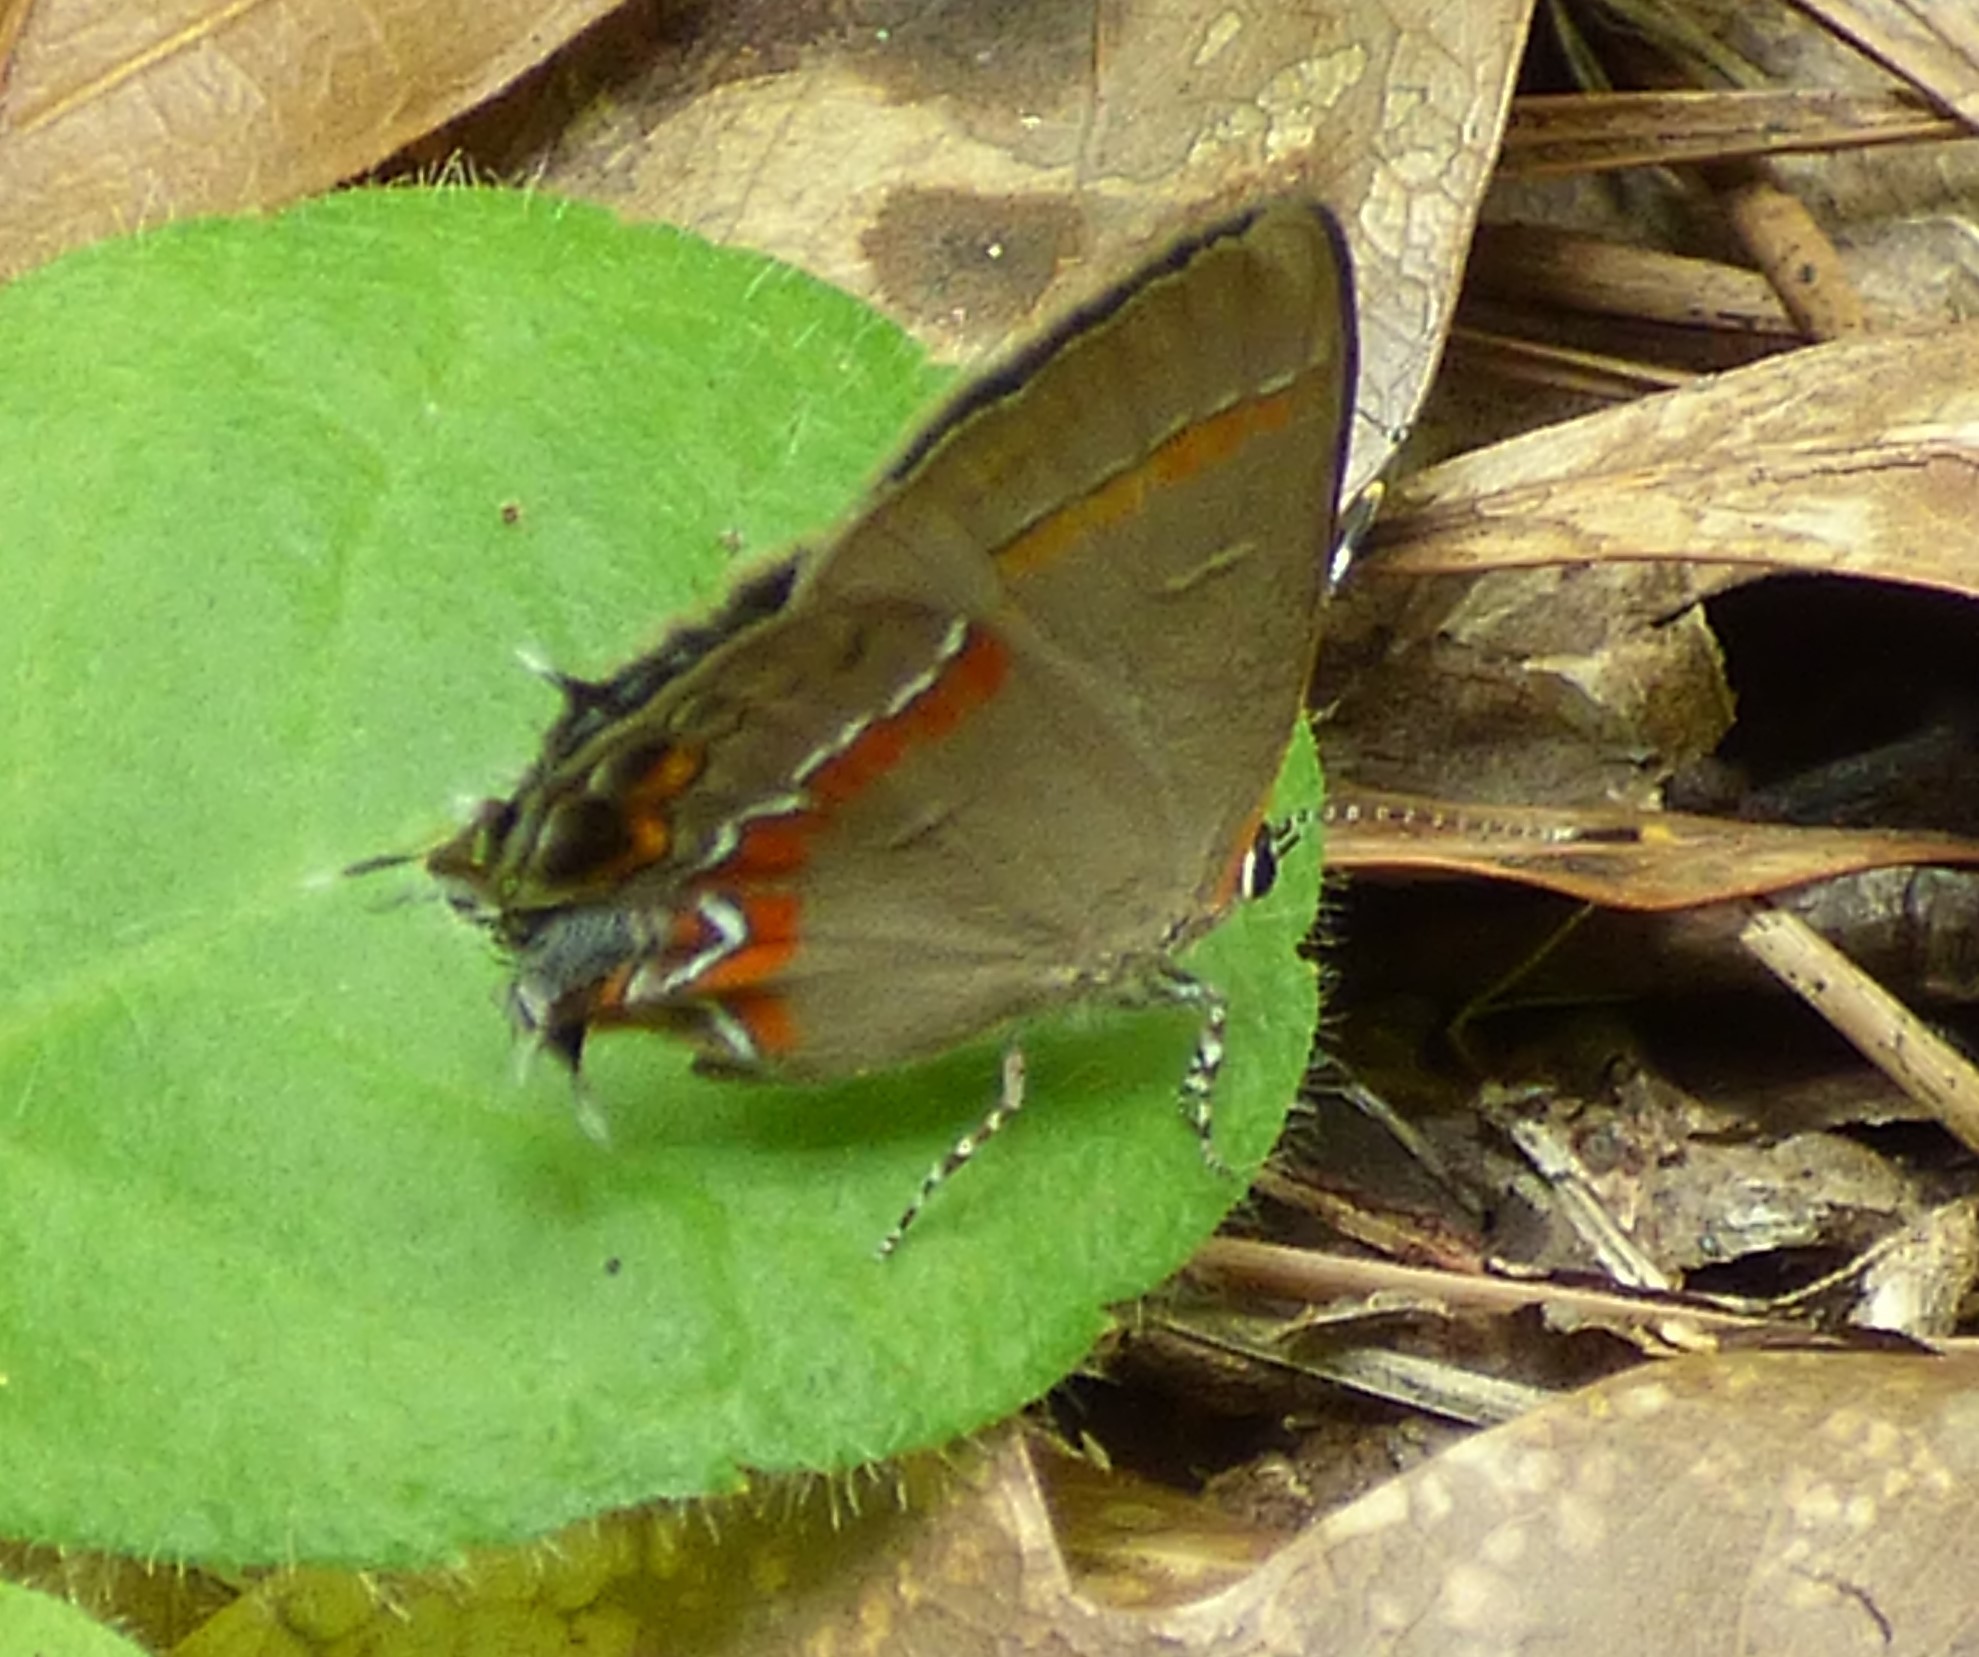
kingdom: Animalia
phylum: Arthropoda
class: Insecta
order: Lepidoptera
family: Lycaenidae
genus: Calycopis
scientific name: Calycopis cecrops
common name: Red-banded hairstreak
